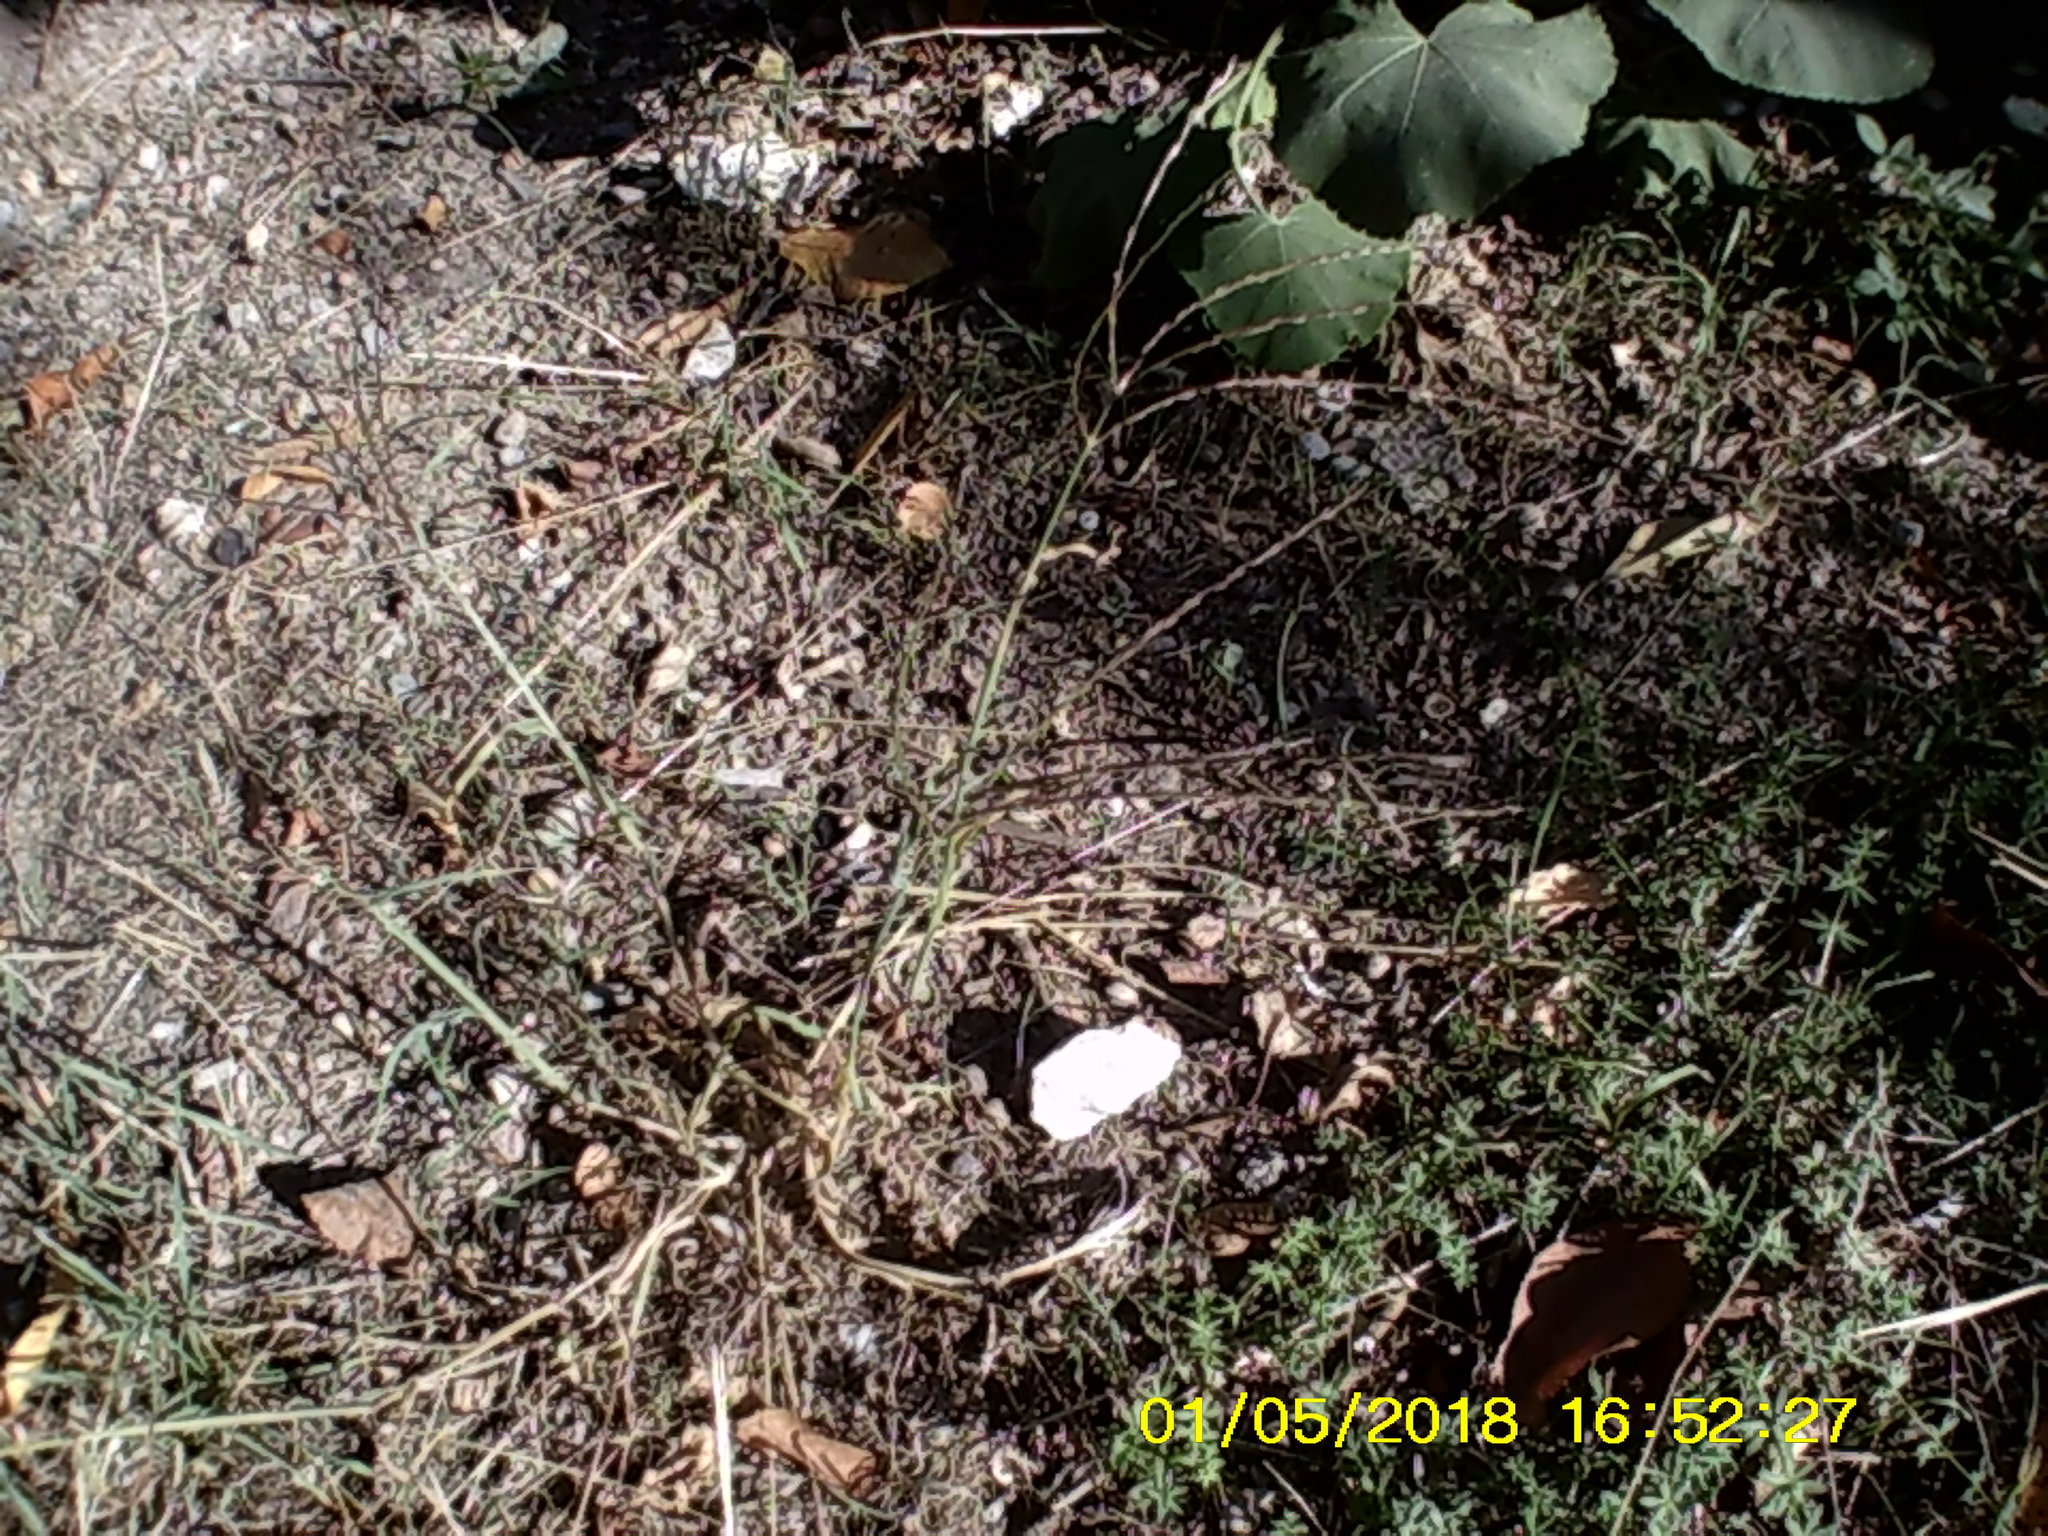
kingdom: Plantae
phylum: Tracheophyta
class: Liliopsida
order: Poales
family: Poaceae
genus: Digitaria
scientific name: Digitaria sanguinalis
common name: Hairy crabgrass
